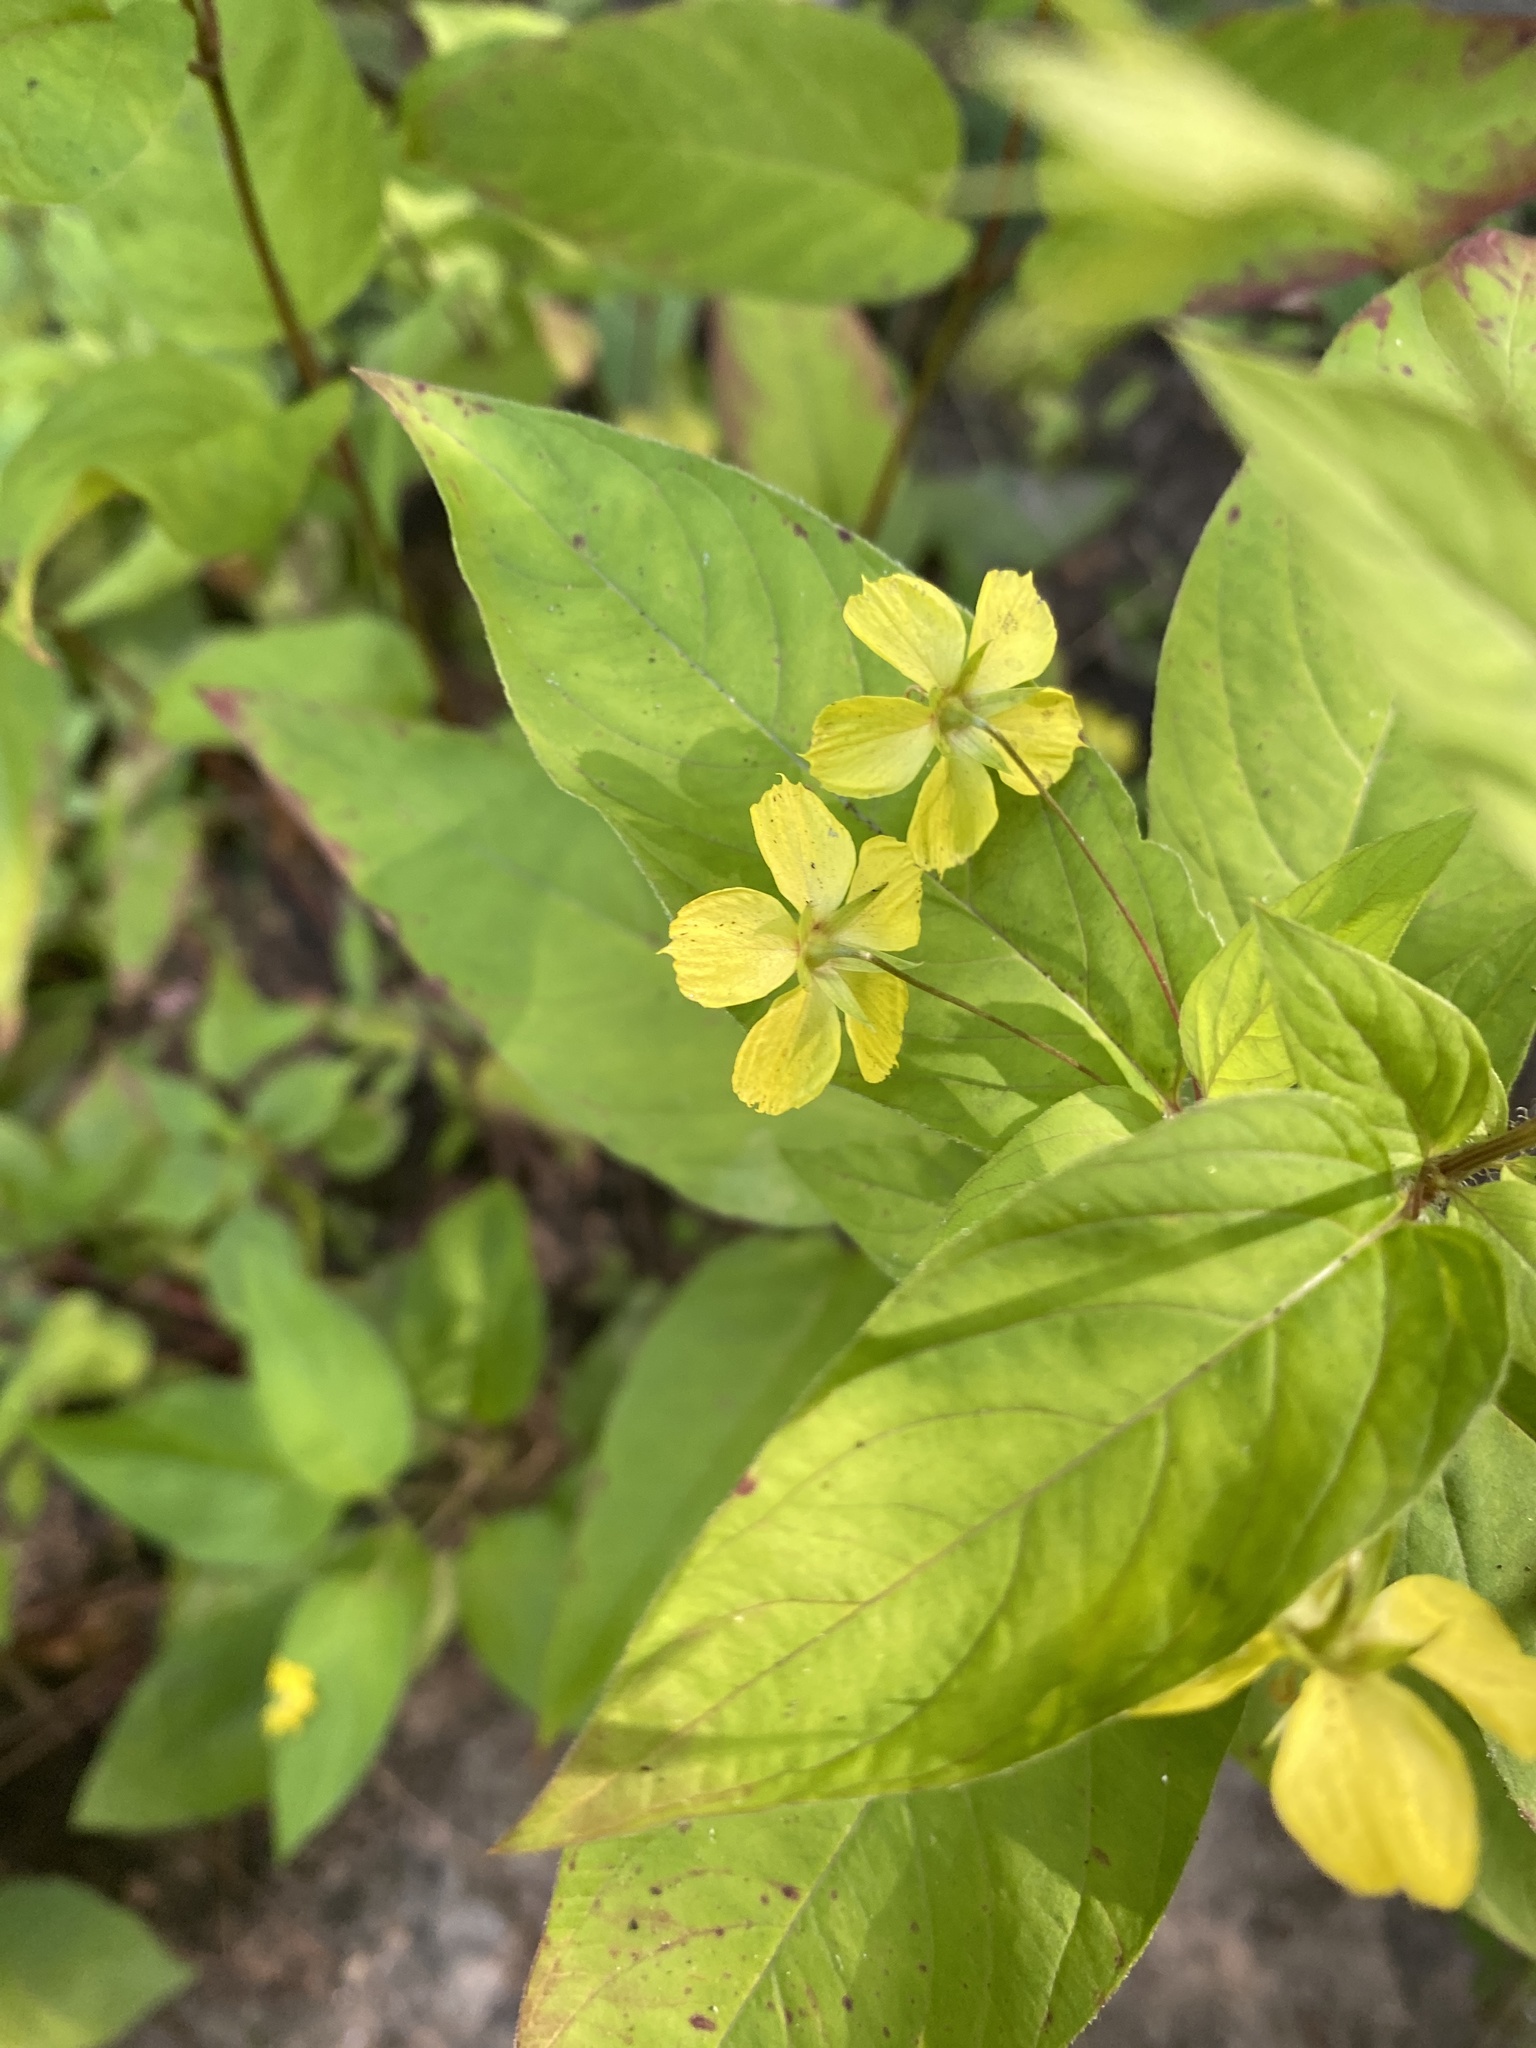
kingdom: Plantae
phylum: Tracheophyta
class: Magnoliopsida
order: Ericales
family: Primulaceae
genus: Lysimachia
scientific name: Lysimachia ciliata
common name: Fringed loosestrife
